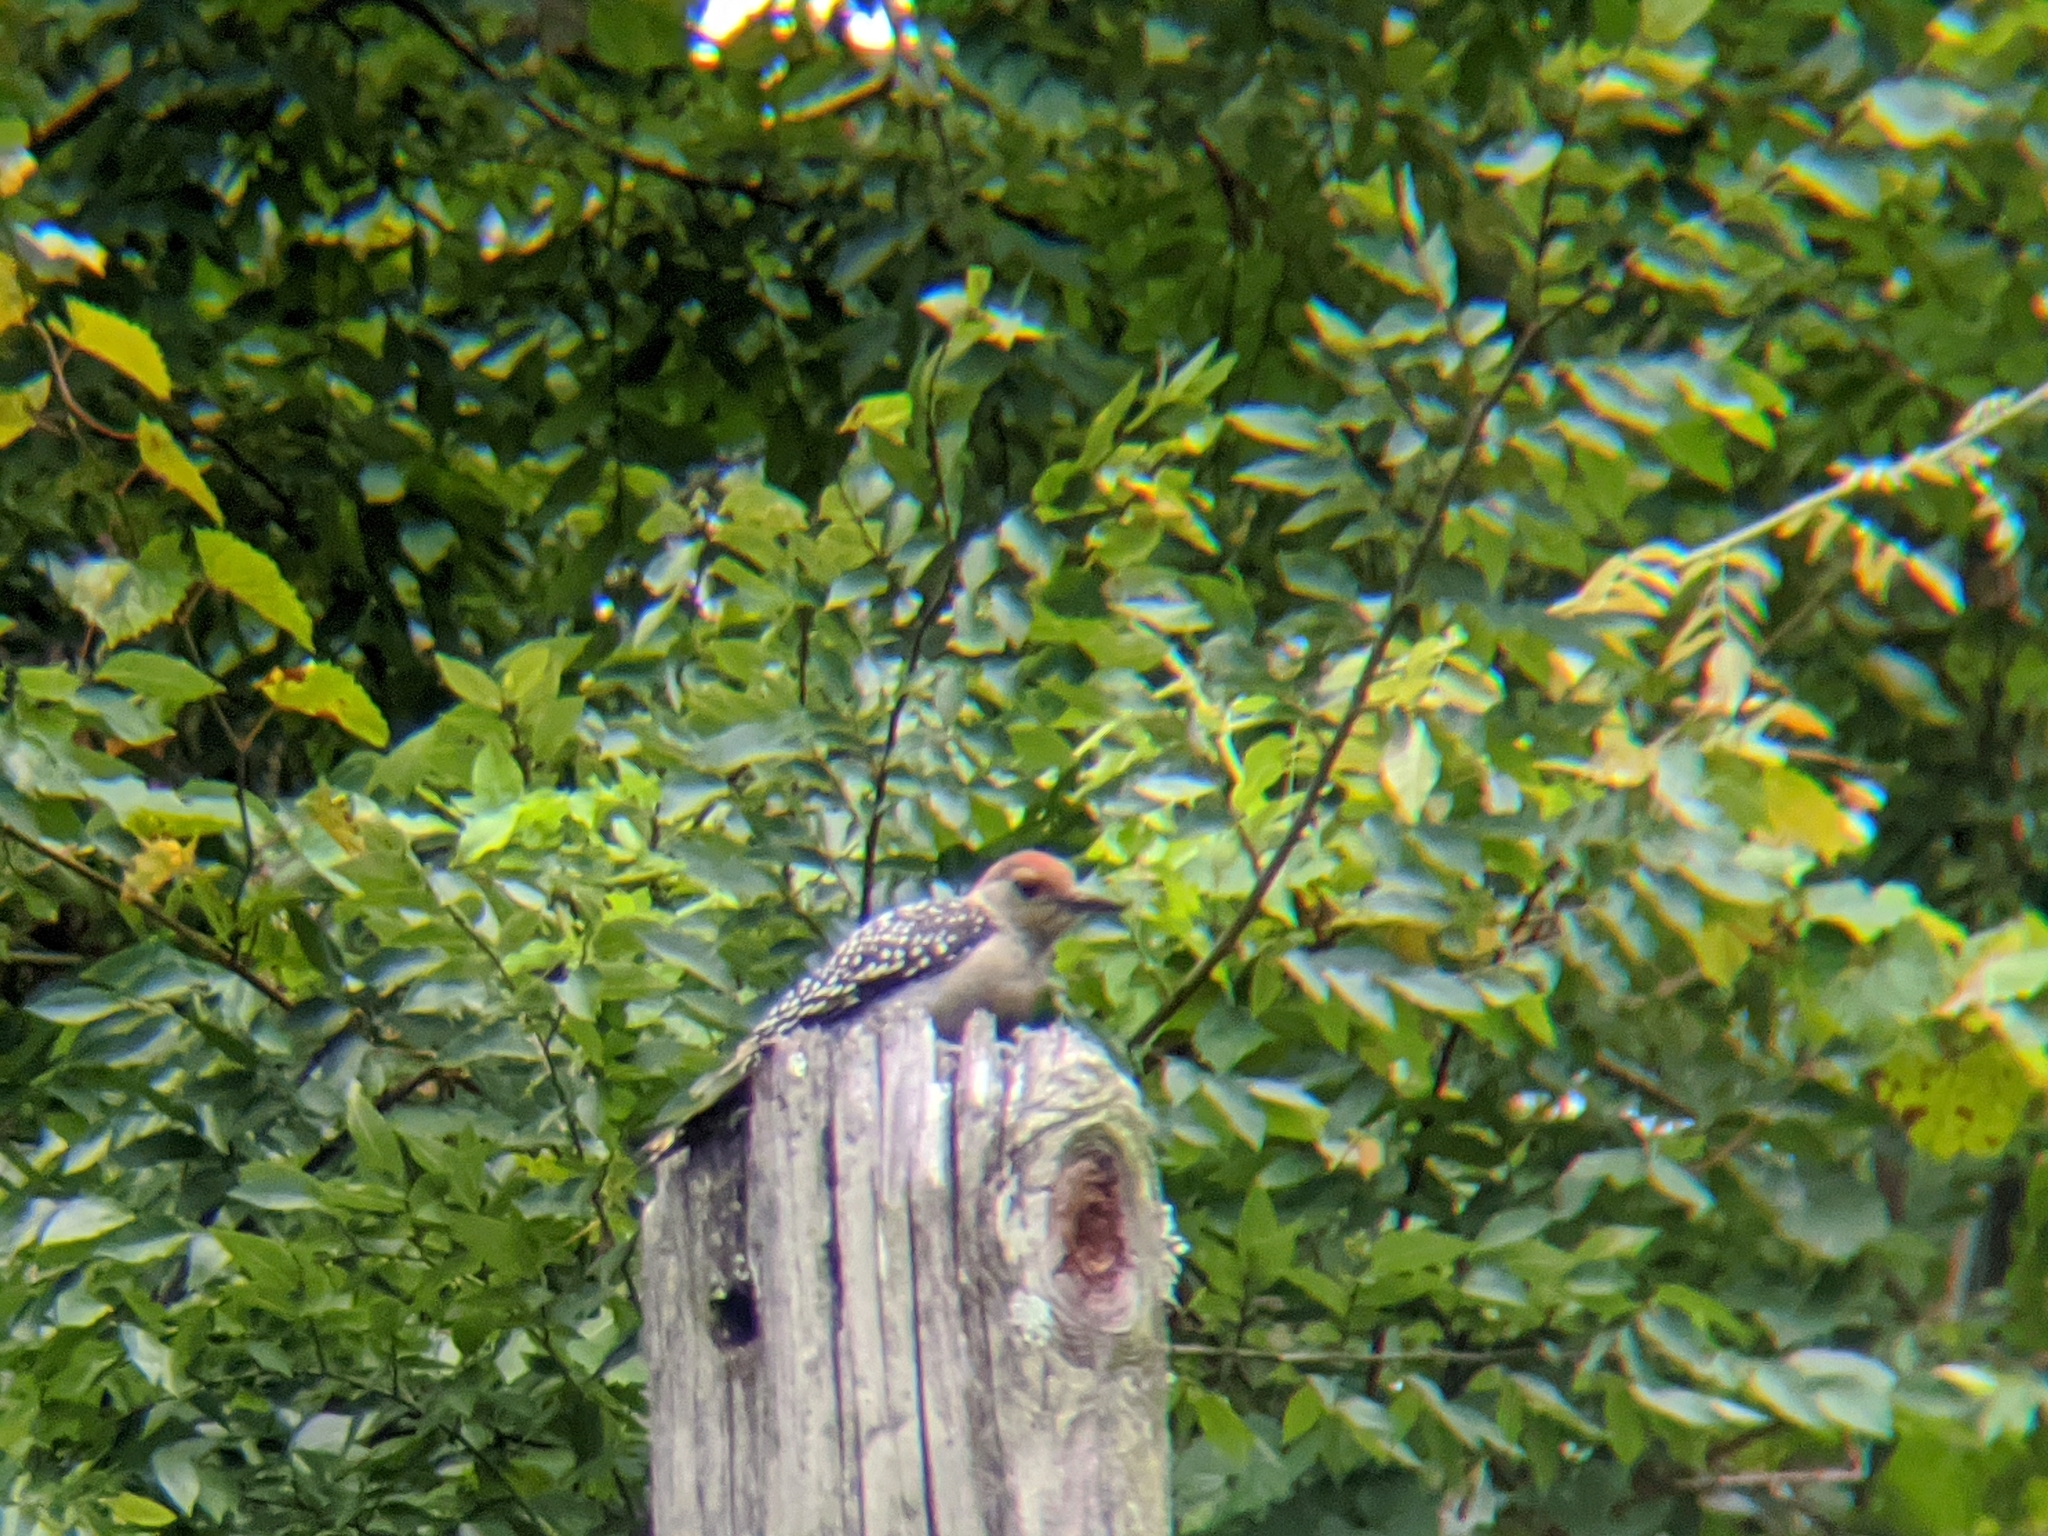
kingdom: Animalia
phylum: Chordata
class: Aves
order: Piciformes
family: Picidae
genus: Melanerpes
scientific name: Melanerpes carolinus
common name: Red-bellied woodpecker
